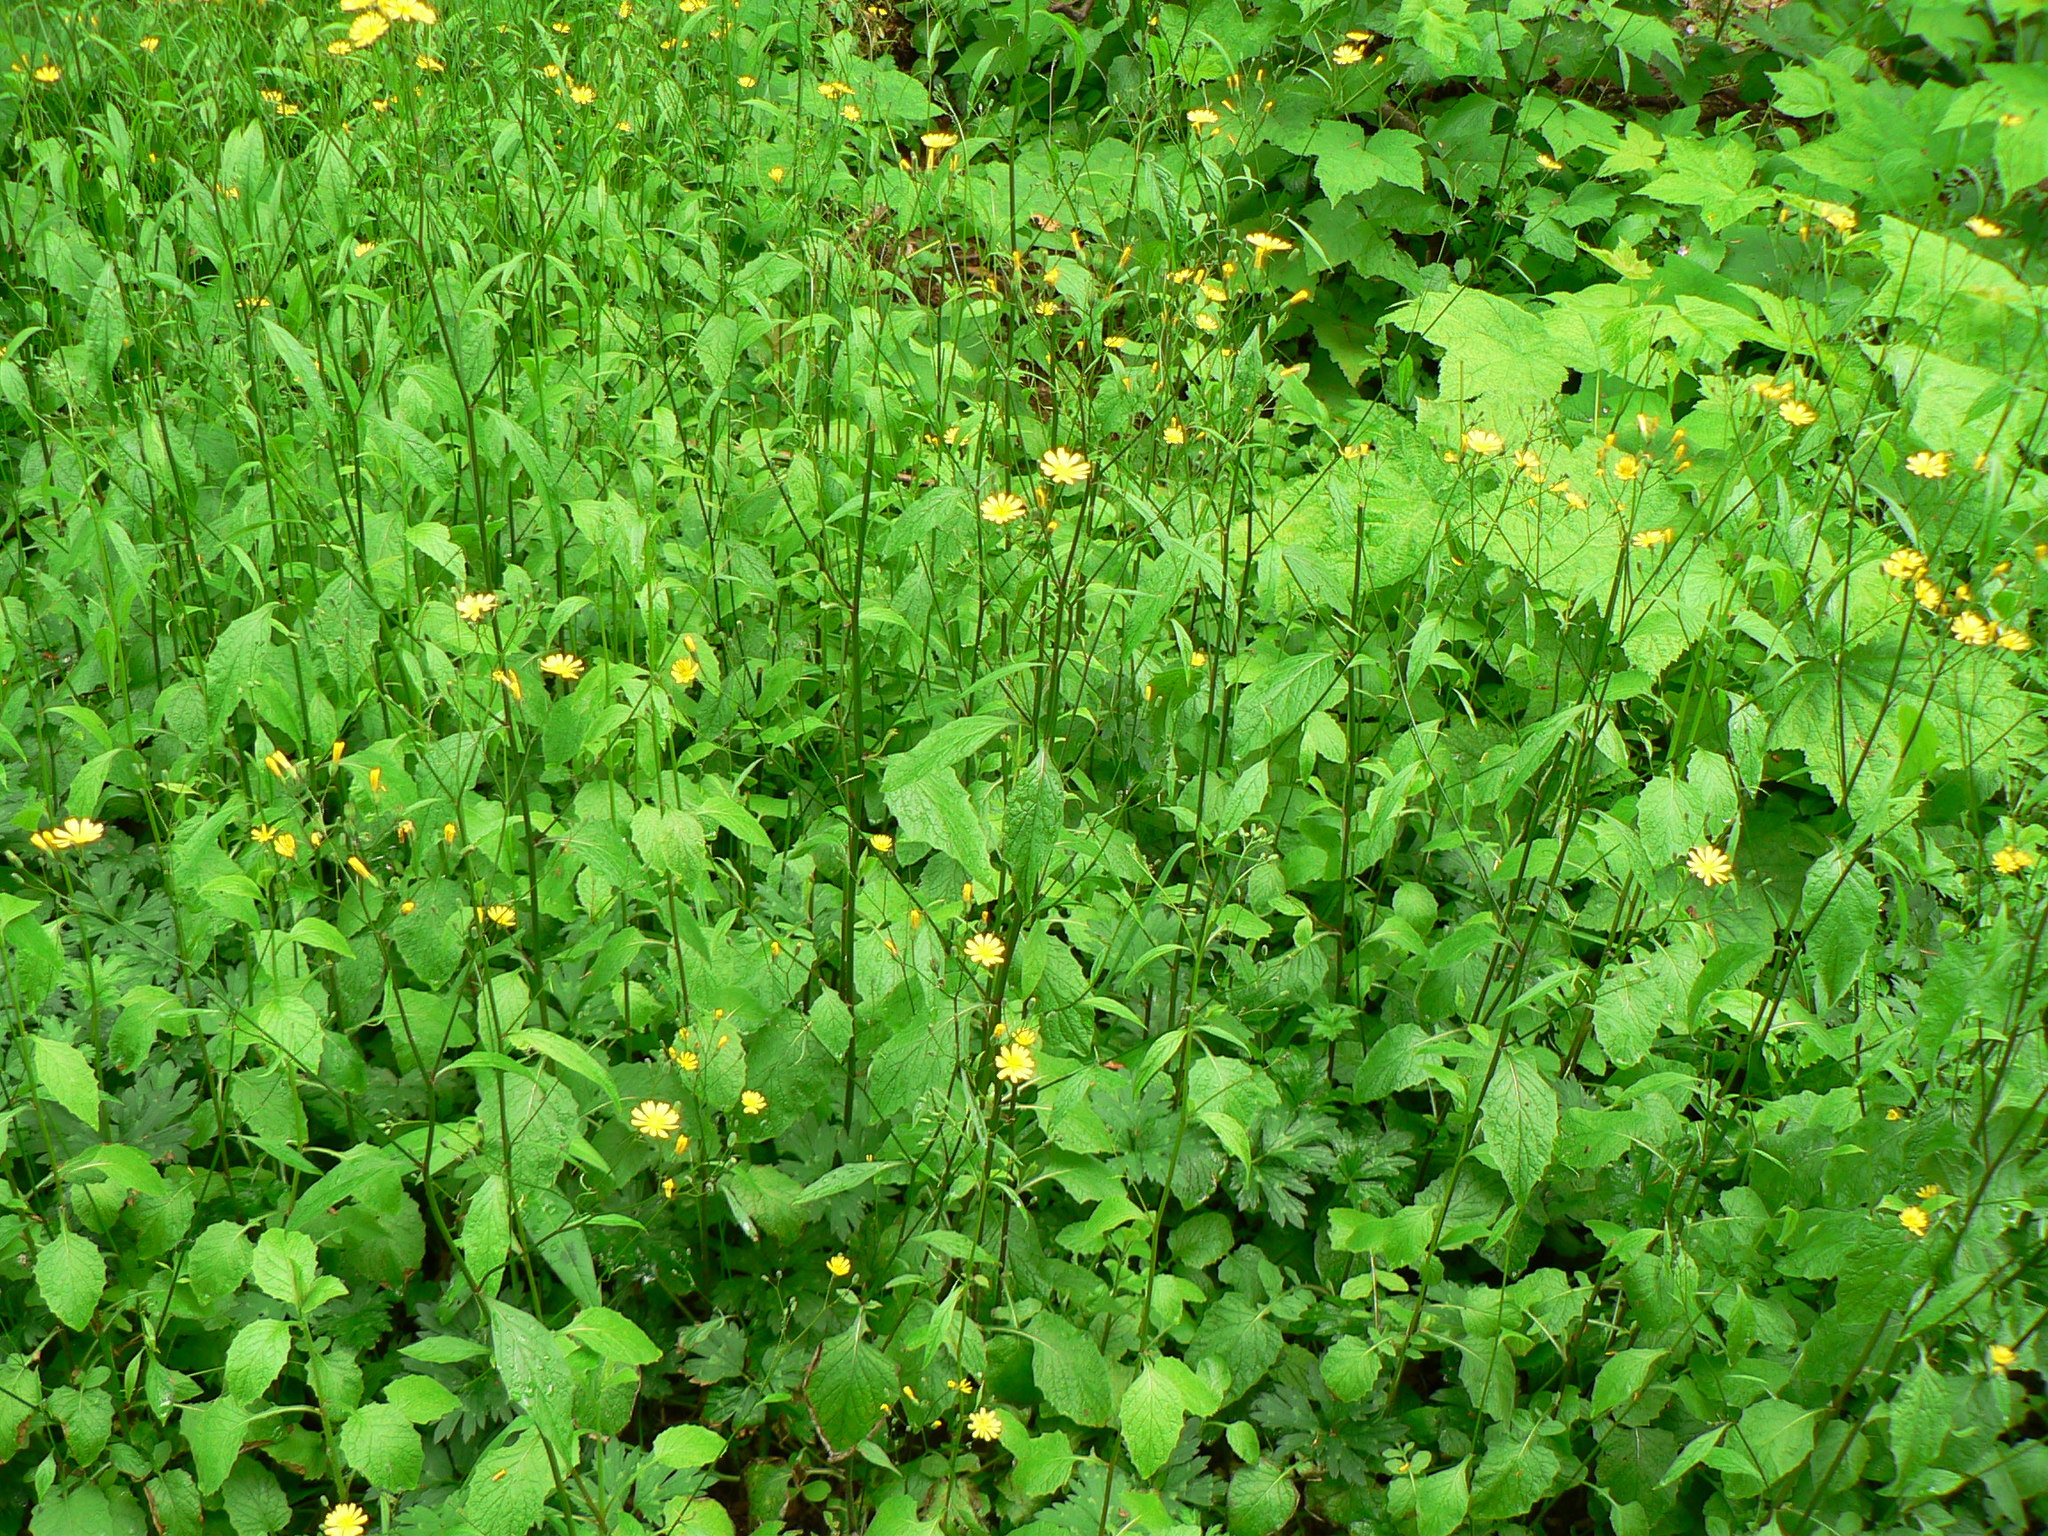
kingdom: Plantae
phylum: Tracheophyta
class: Magnoliopsida
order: Asterales
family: Asteraceae
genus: Lapsana
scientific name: Lapsana communis
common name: Nipplewort
